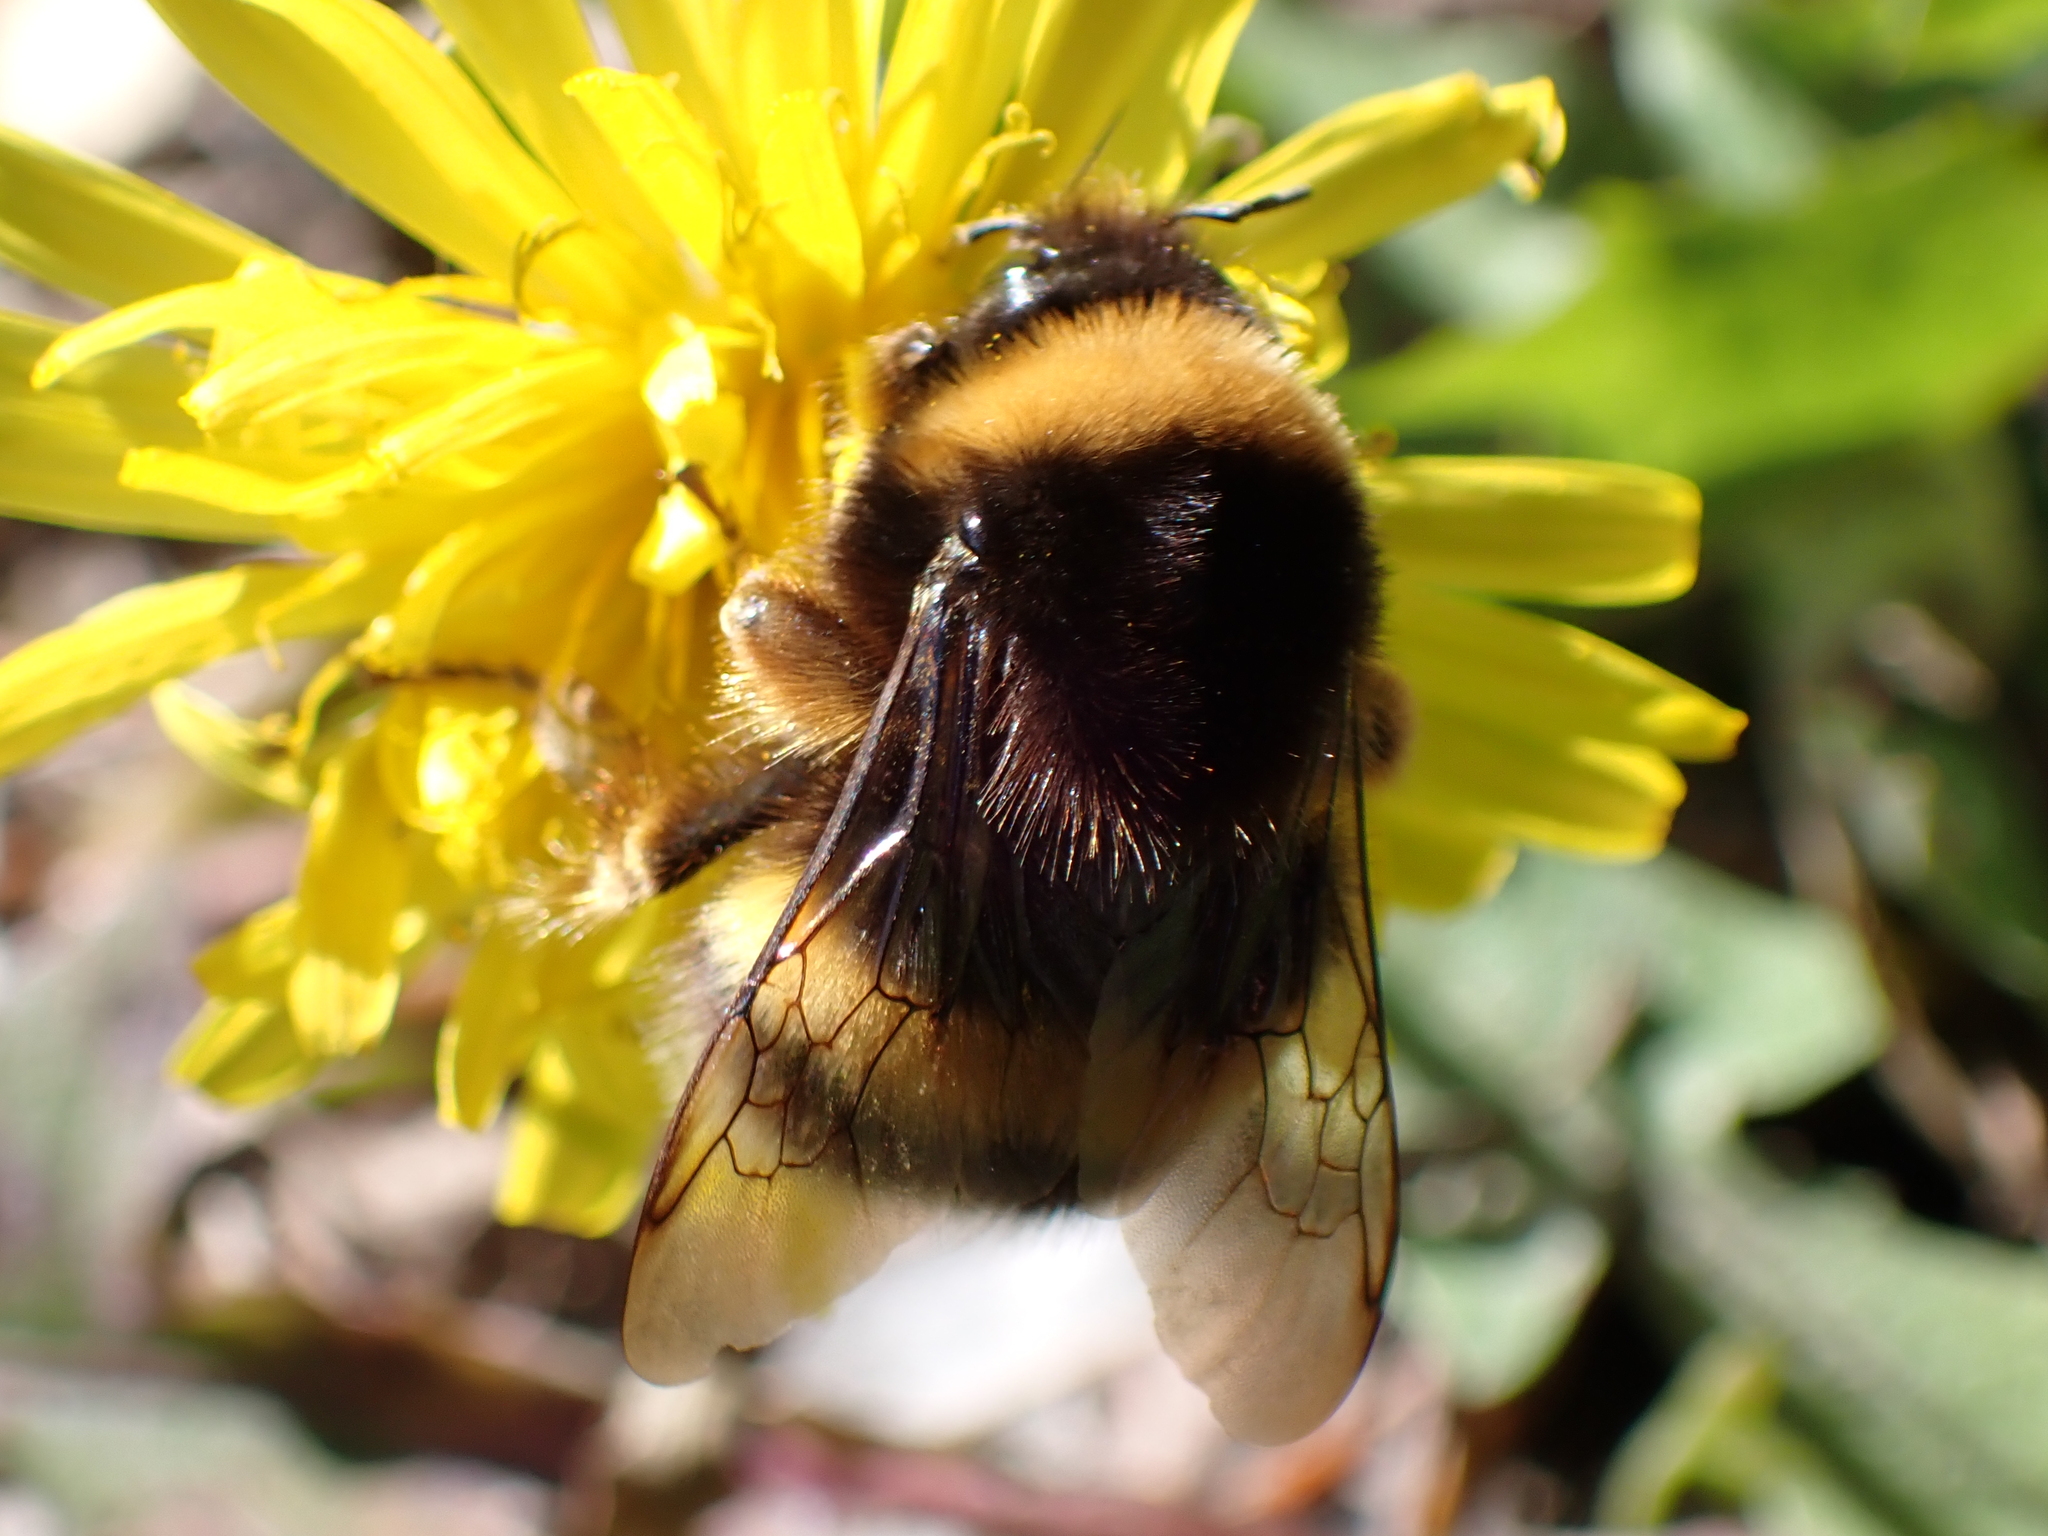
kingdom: Animalia
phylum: Arthropoda
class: Insecta
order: Hymenoptera
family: Apidae
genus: Bombus
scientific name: Bombus terrestris
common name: Buff-tailed bumblebee
